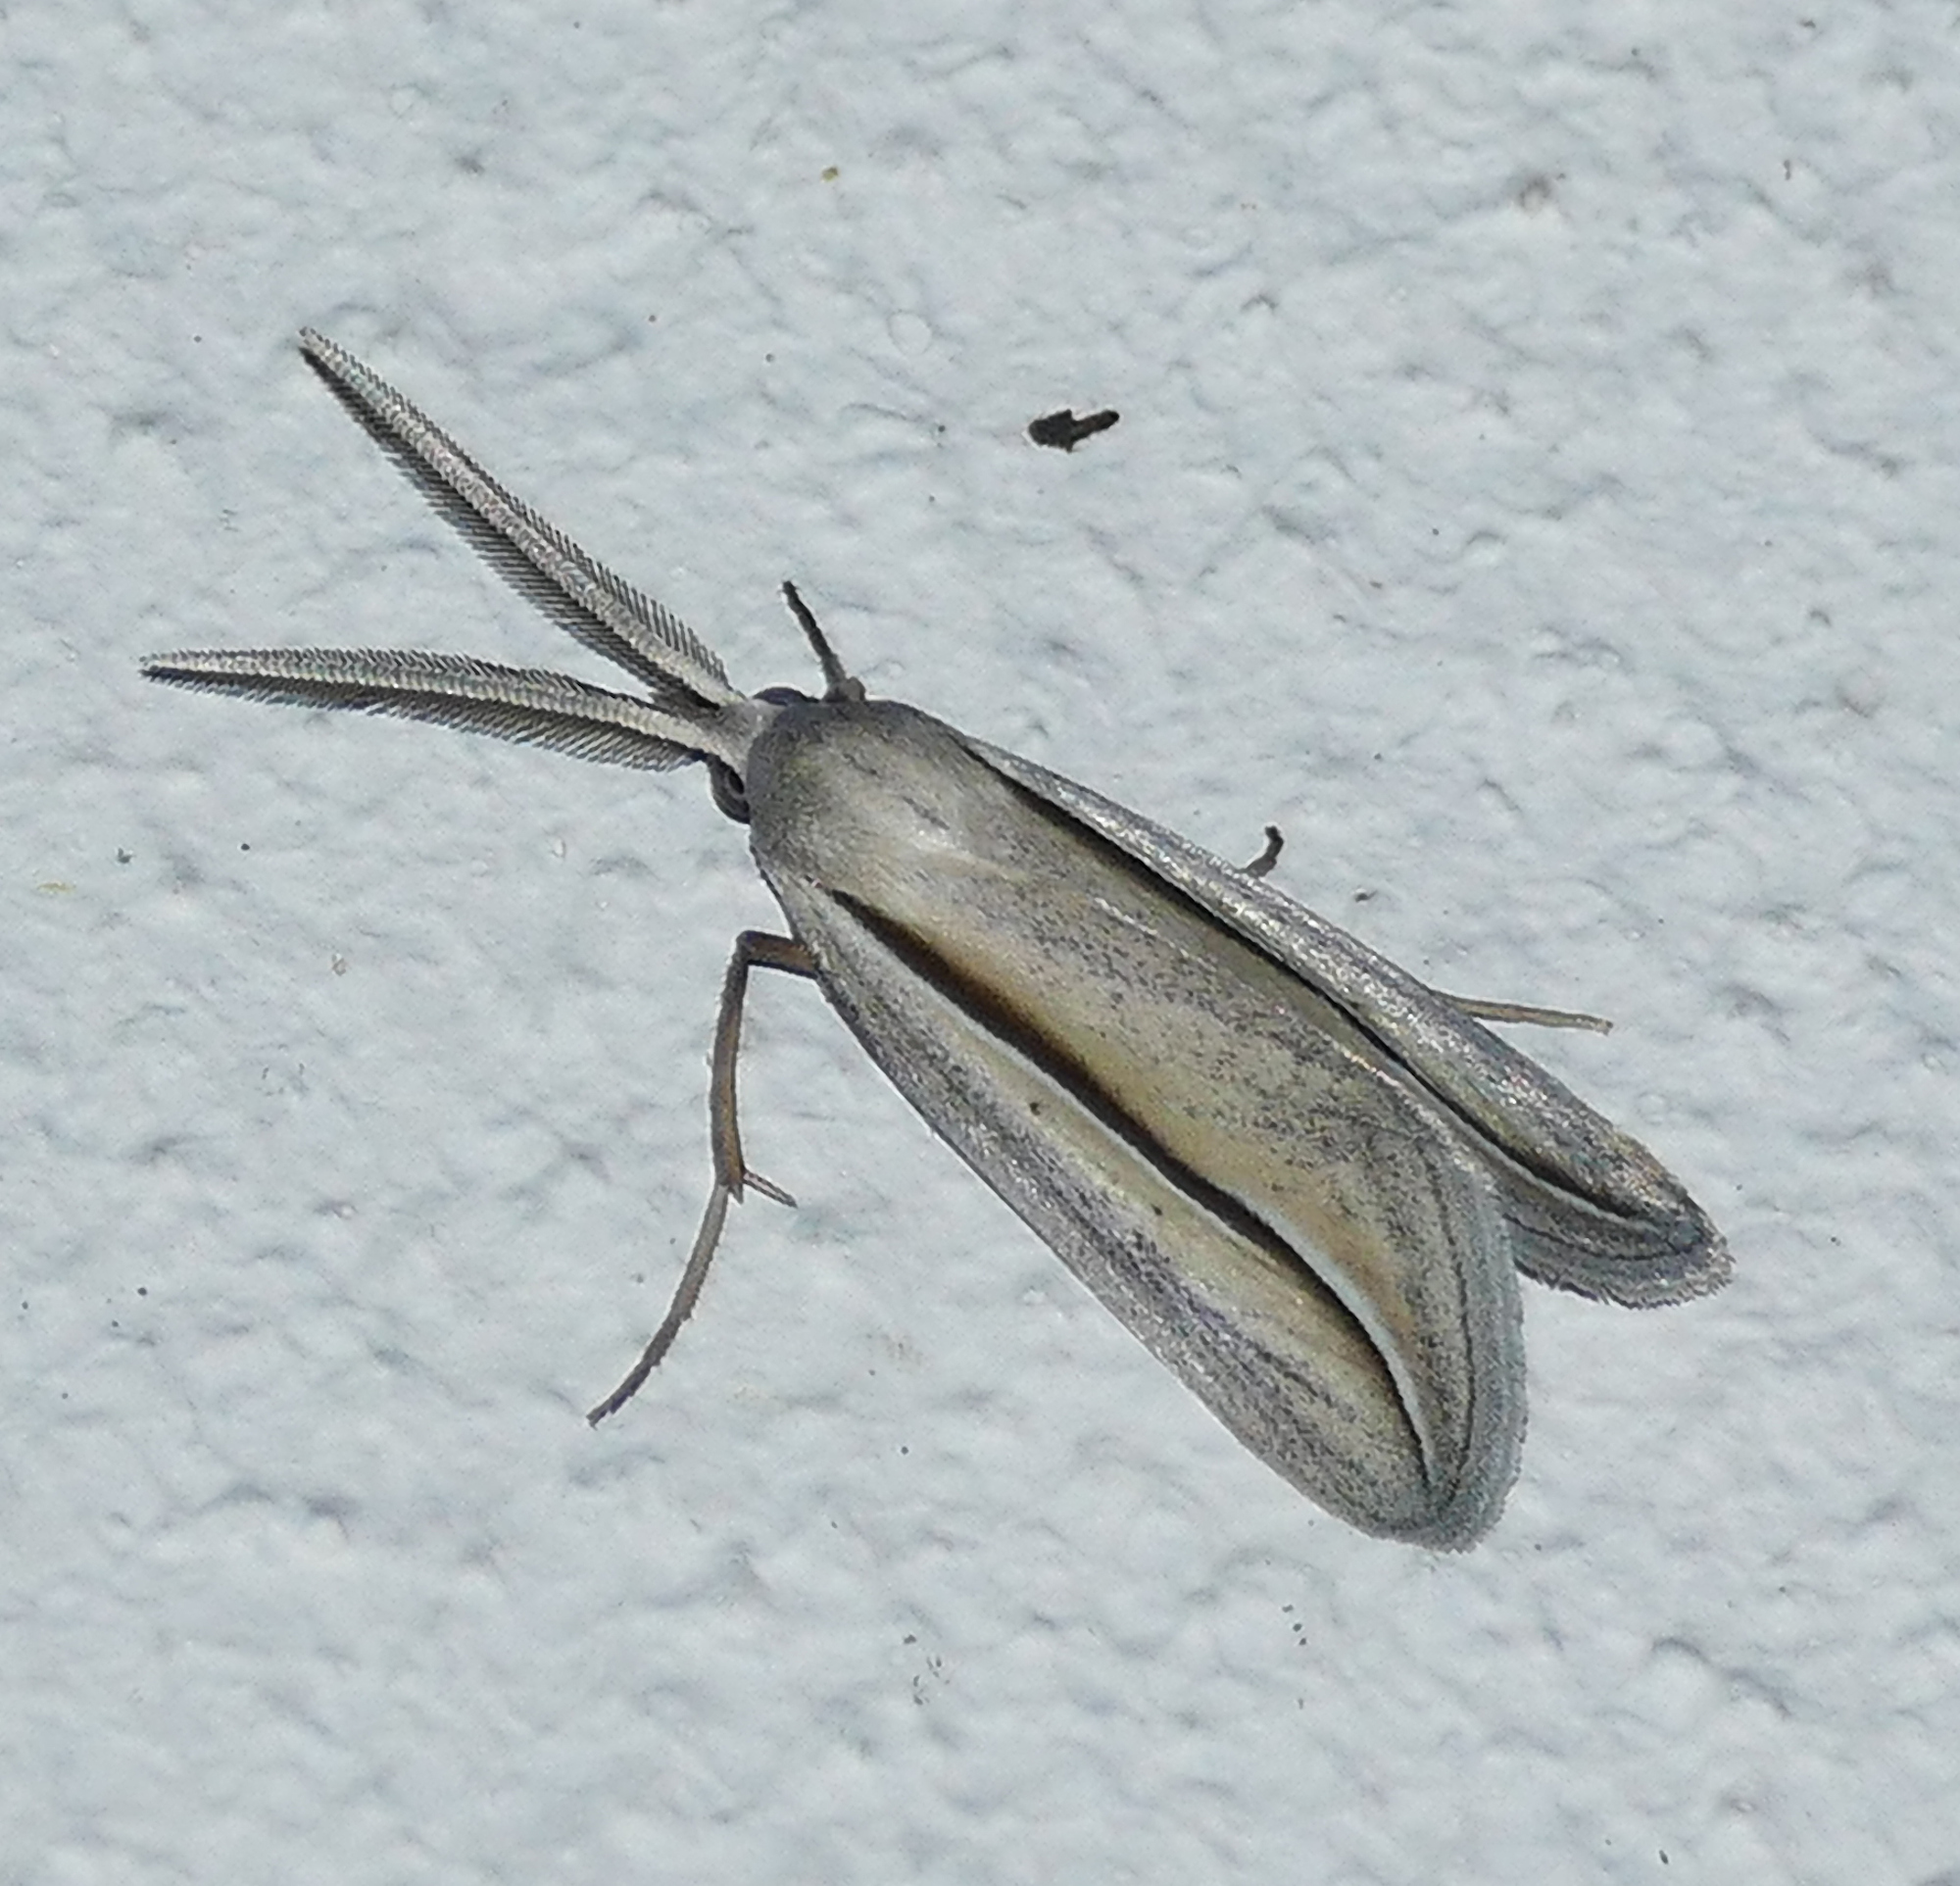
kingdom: Animalia
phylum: Arthropoda
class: Insecta
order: Lepidoptera
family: Erebidae
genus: Doryodes
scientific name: Doryodes tenuistriga
